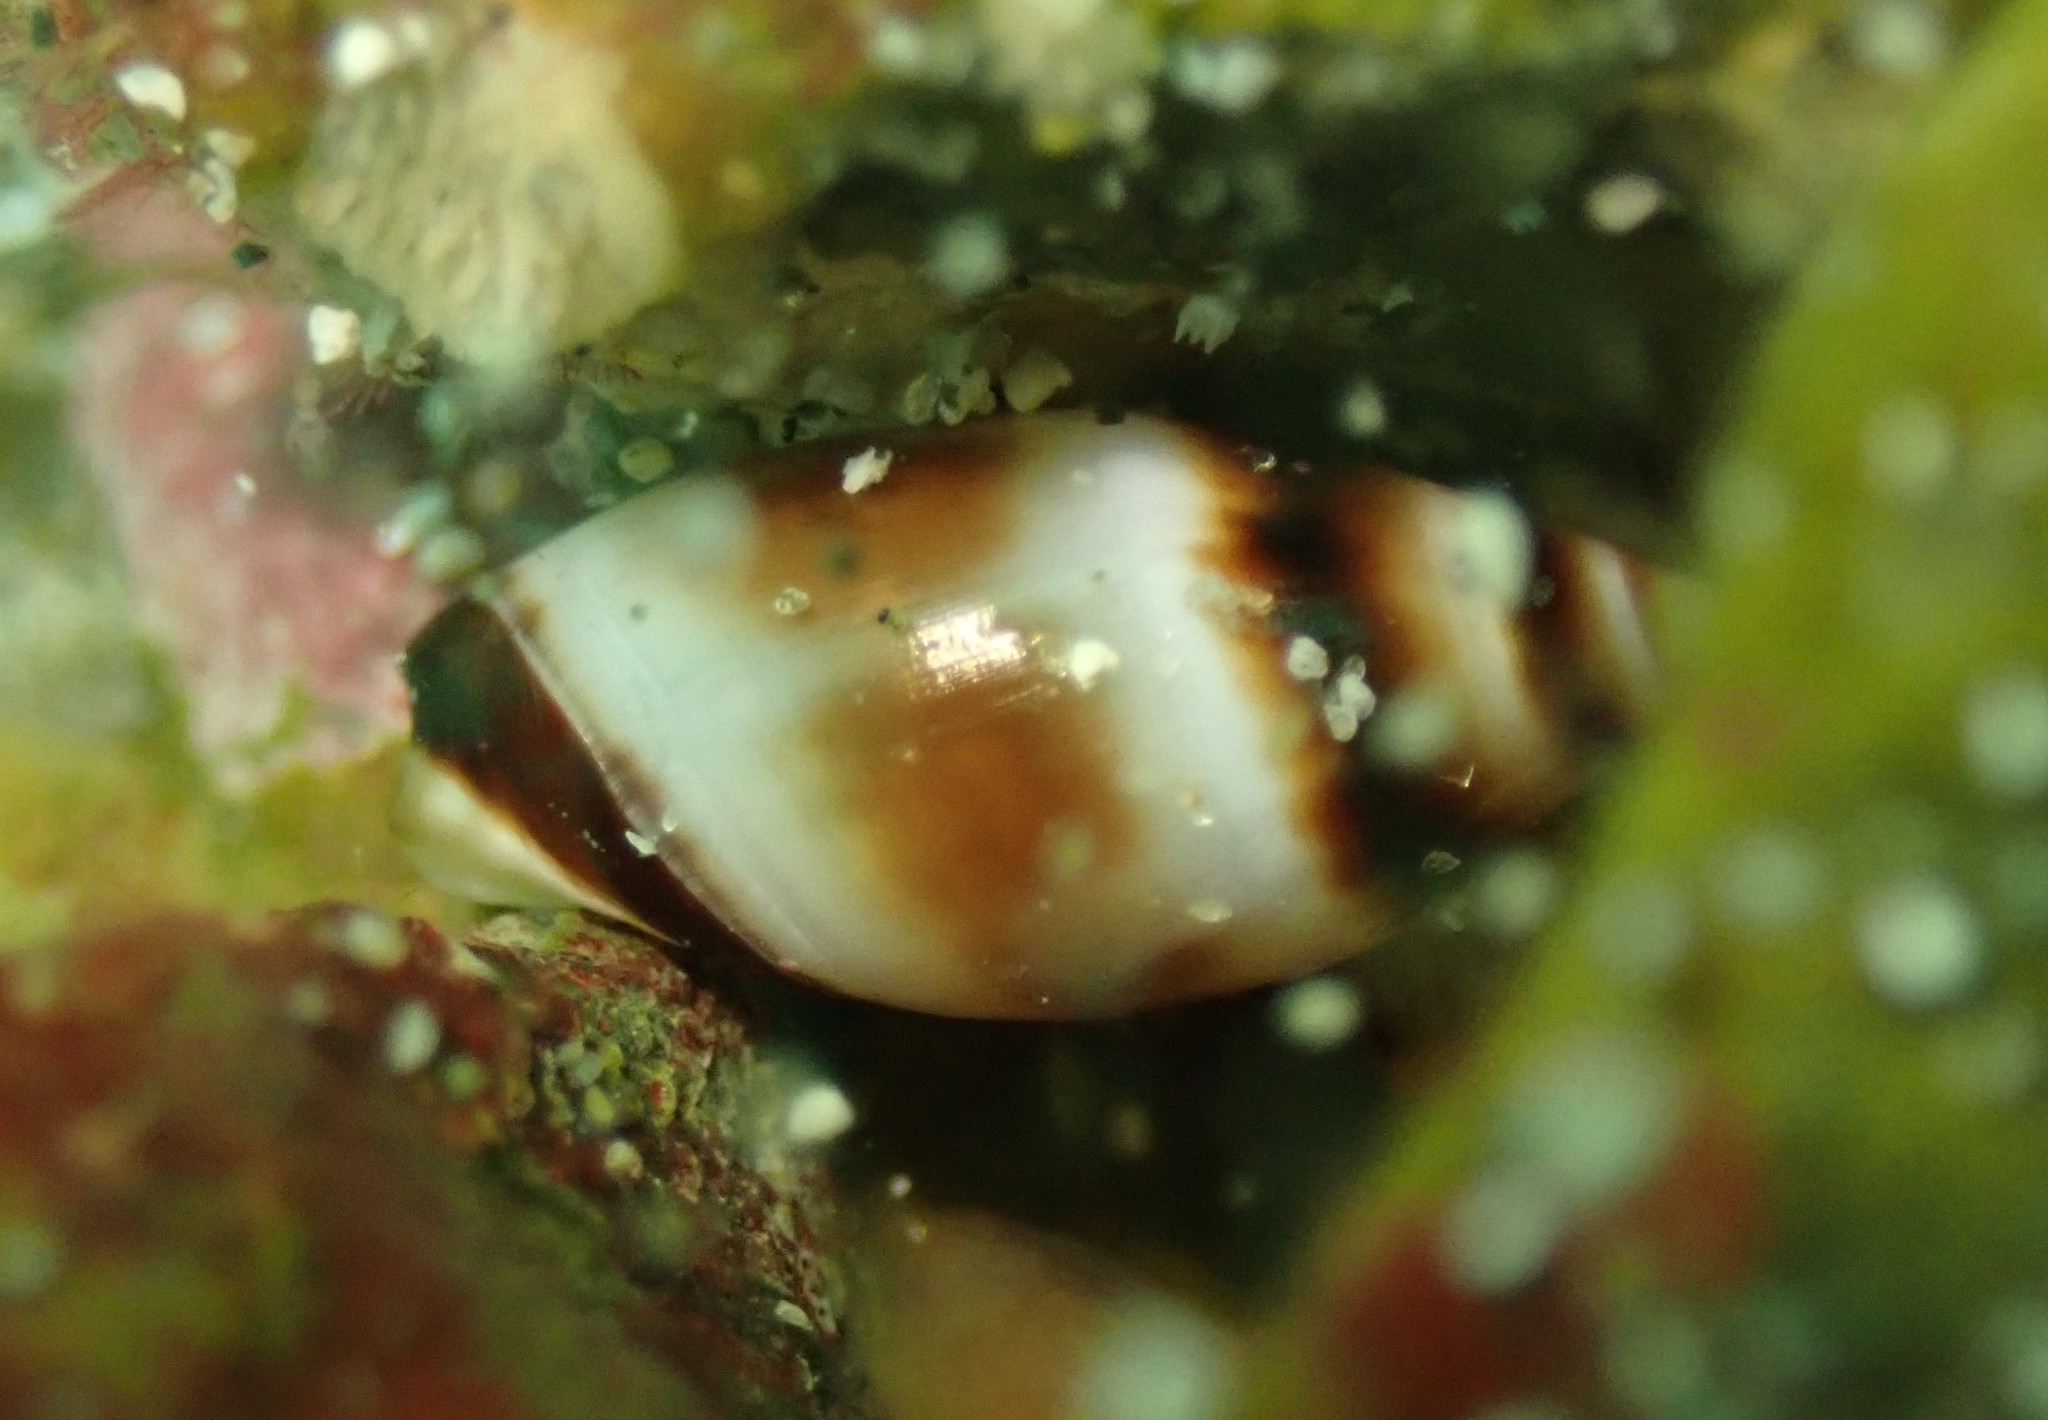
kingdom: Animalia
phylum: Mollusca
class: Gastropoda
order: Neogastropoda
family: Ancillariidae
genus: Amalda
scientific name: Amalda northlandica
